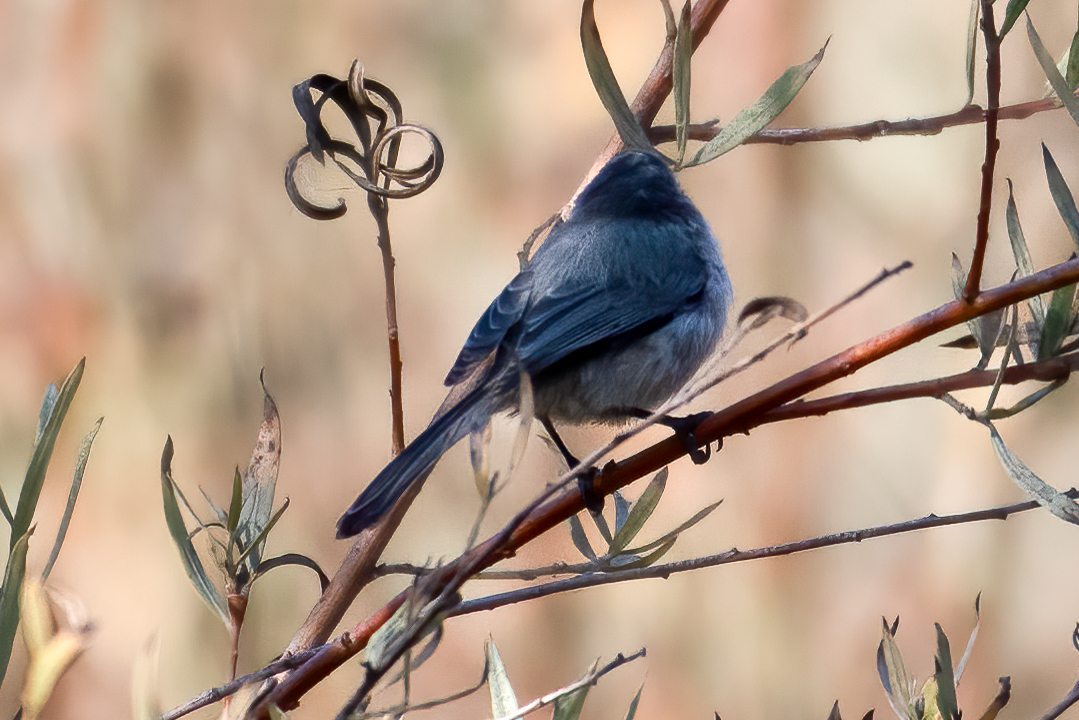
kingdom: Animalia
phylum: Chordata
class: Aves
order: Passeriformes
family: Aegithalidae
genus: Psaltriparus
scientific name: Psaltriparus minimus
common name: American bushtit
